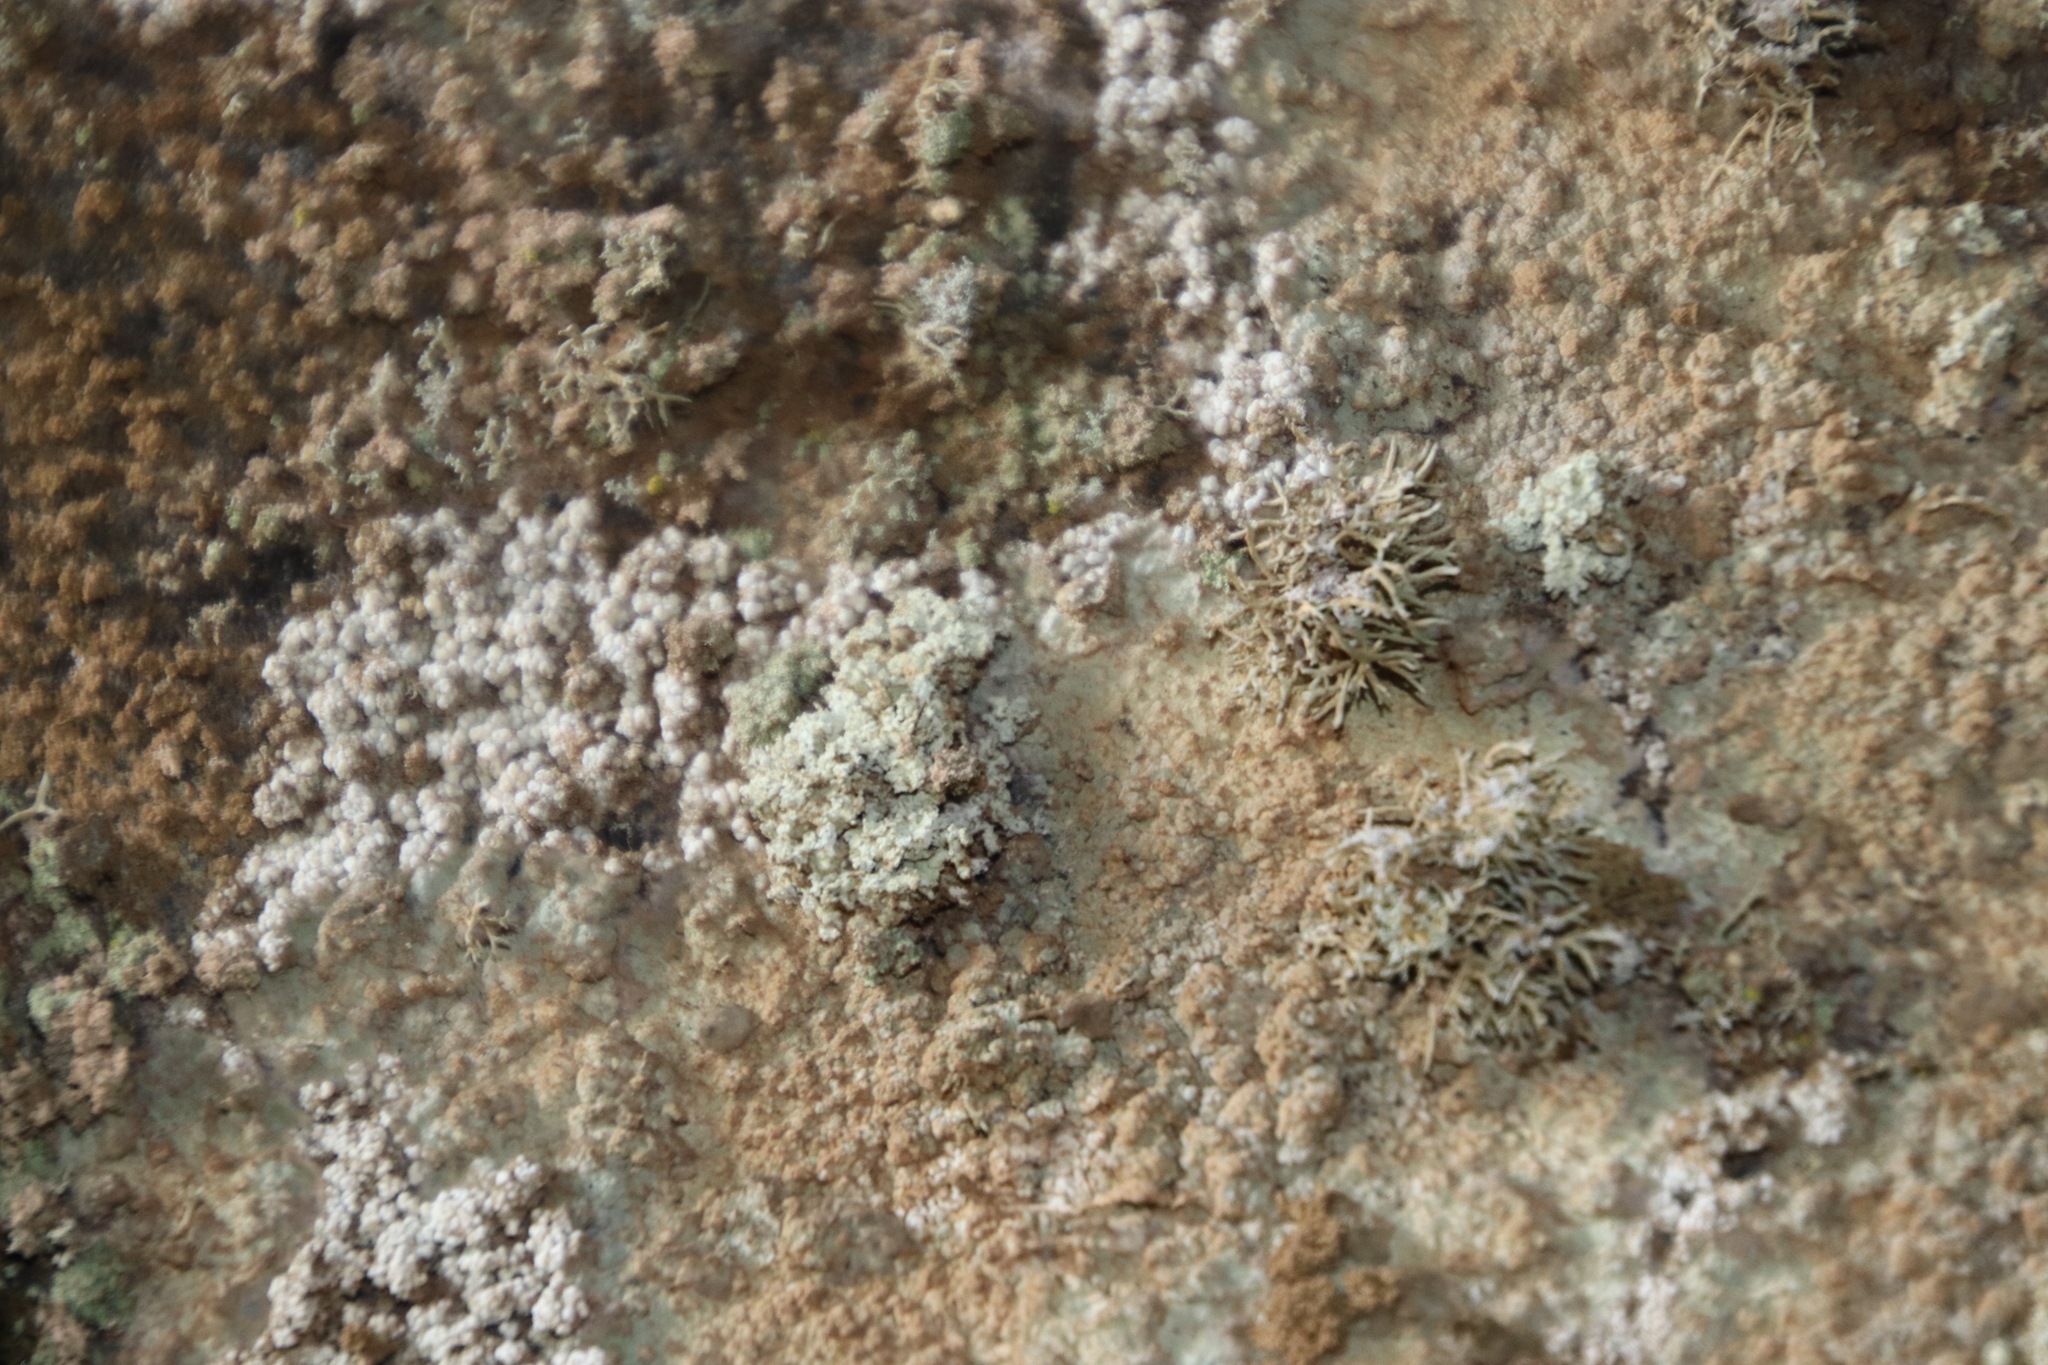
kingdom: Fungi
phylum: Ascomycota
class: Lecanoromycetes
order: Lecanorales
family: Stereocaulaceae
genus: Lepraria
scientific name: Lepraria albicans
